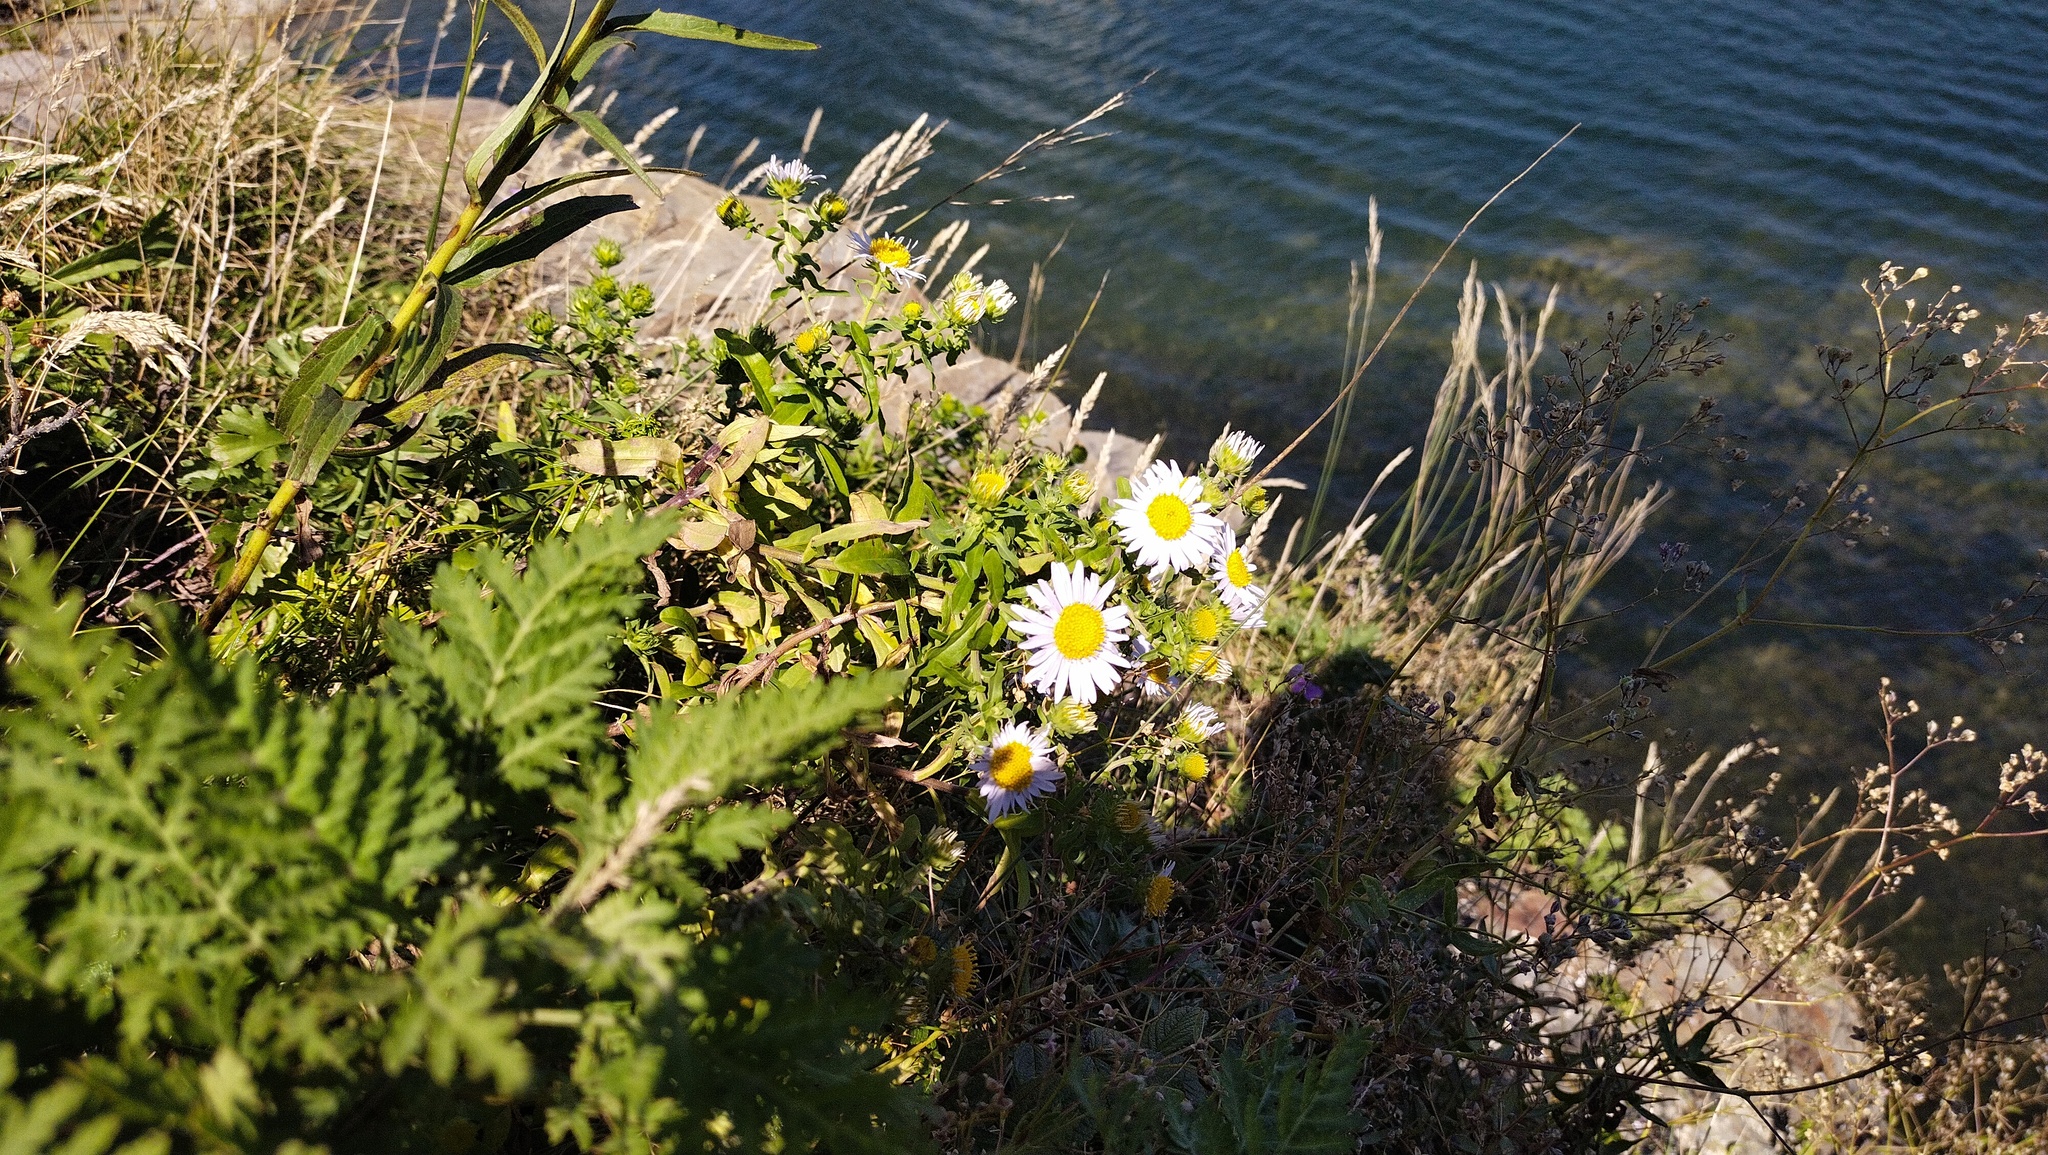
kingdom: Plantae
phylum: Tracheophyta
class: Magnoliopsida
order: Asterales
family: Asteraceae
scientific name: Asteraceae
